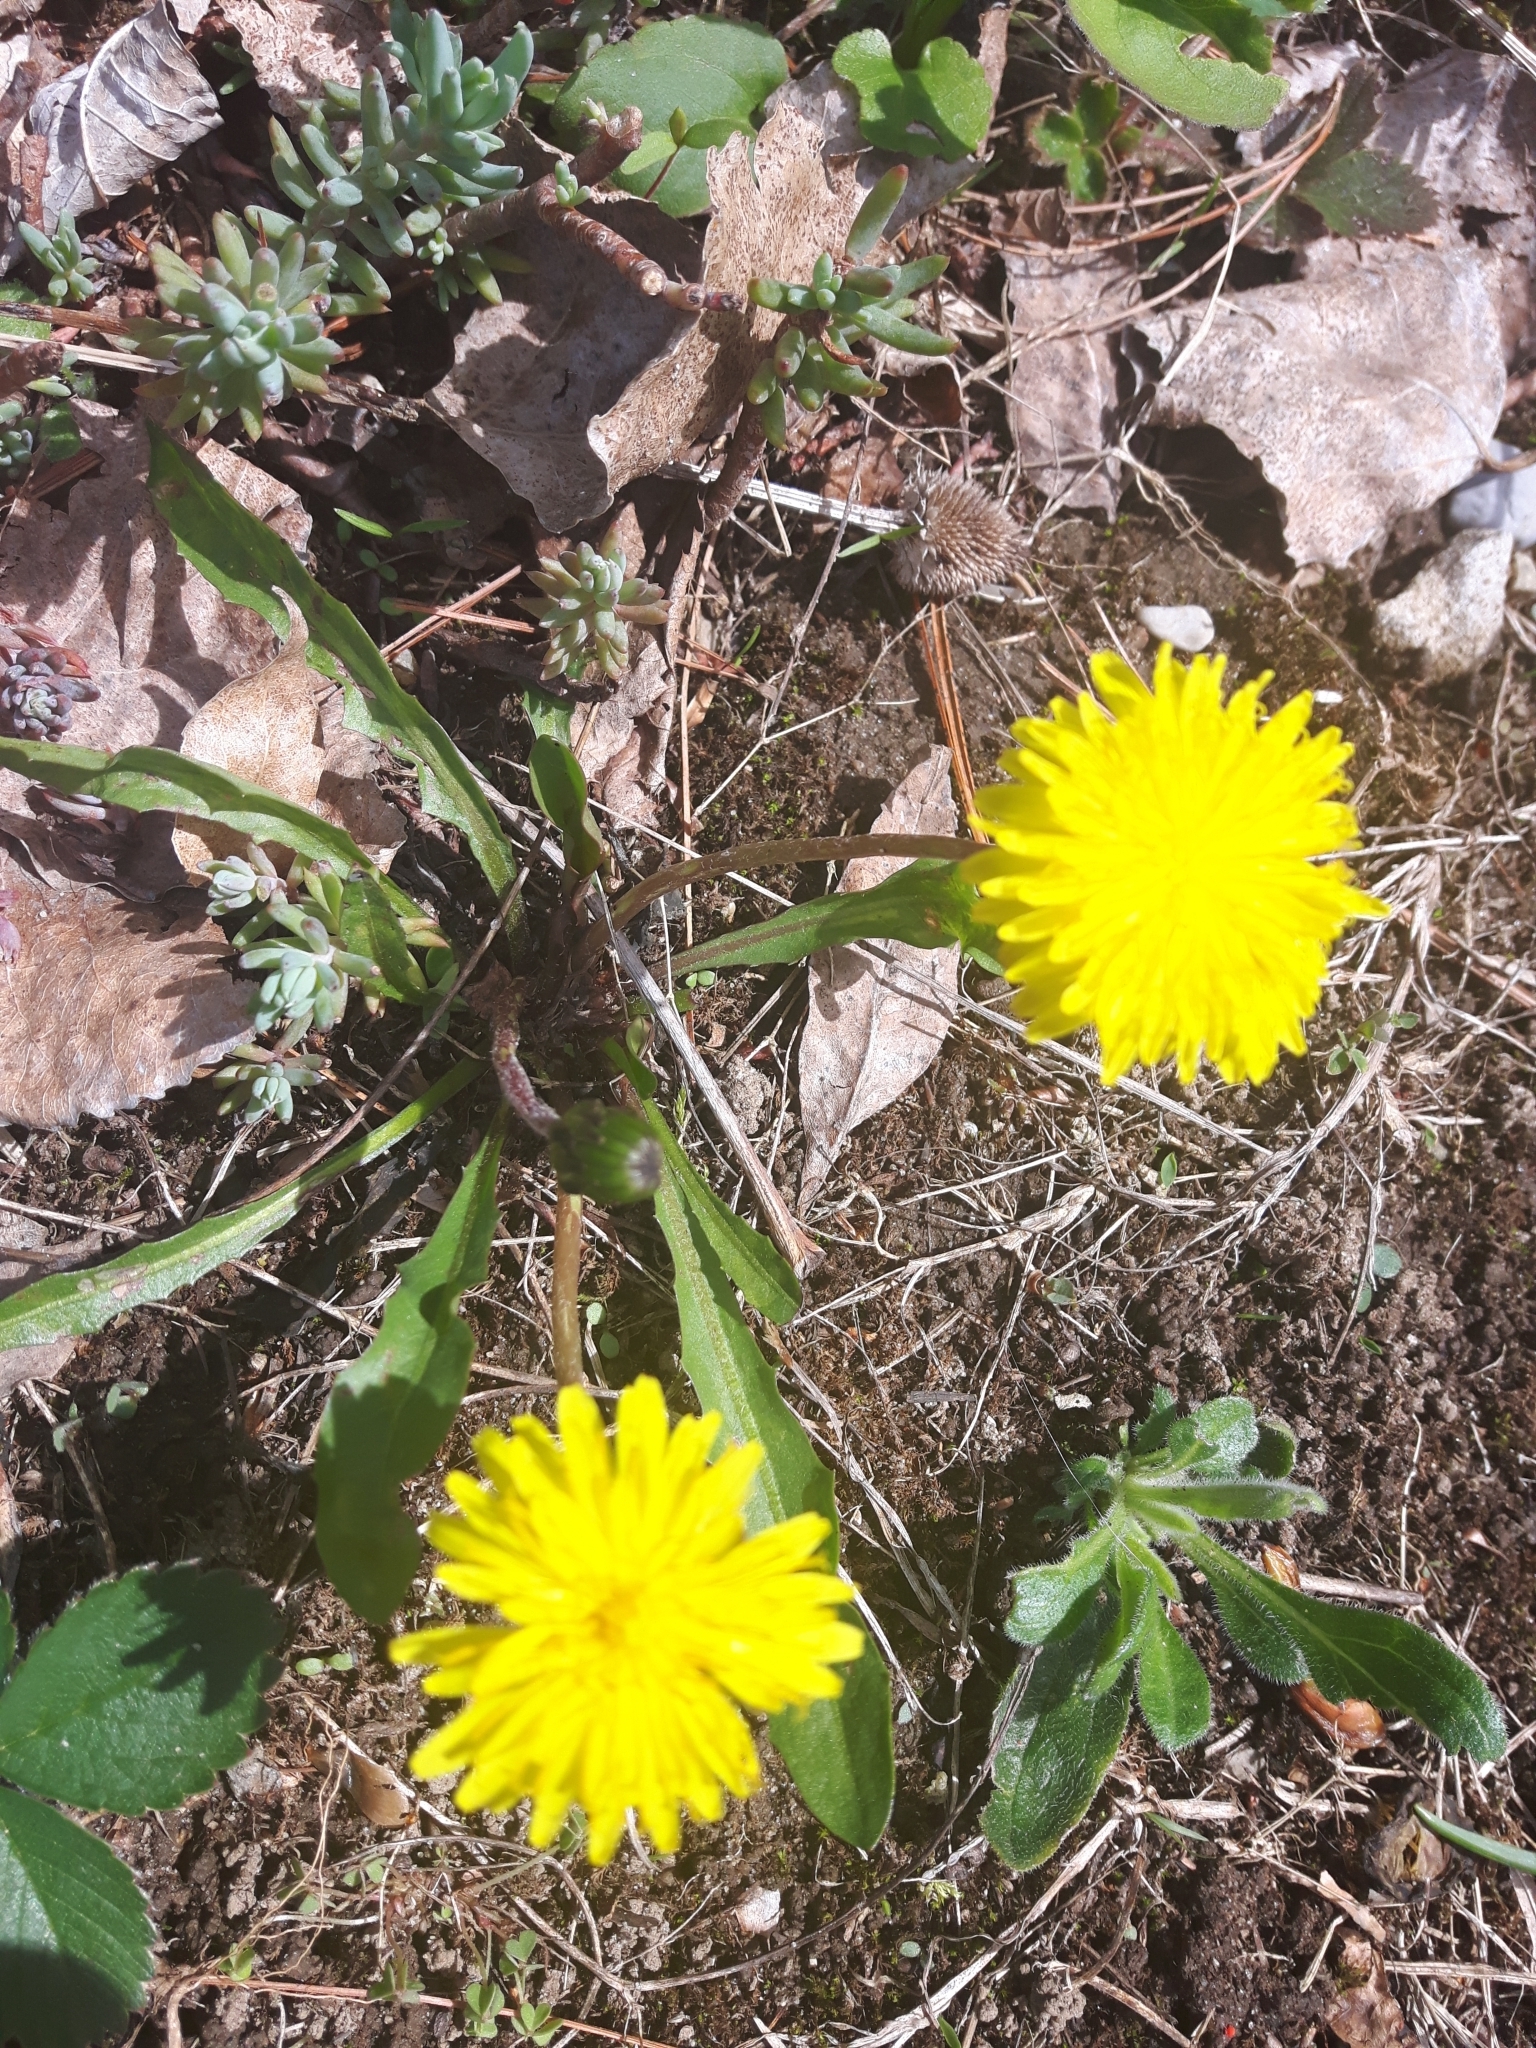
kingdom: Plantae
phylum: Tracheophyta
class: Magnoliopsida
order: Asterales
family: Asteraceae
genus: Taraxacum
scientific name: Taraxacum palustre
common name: Marsh dandelion
